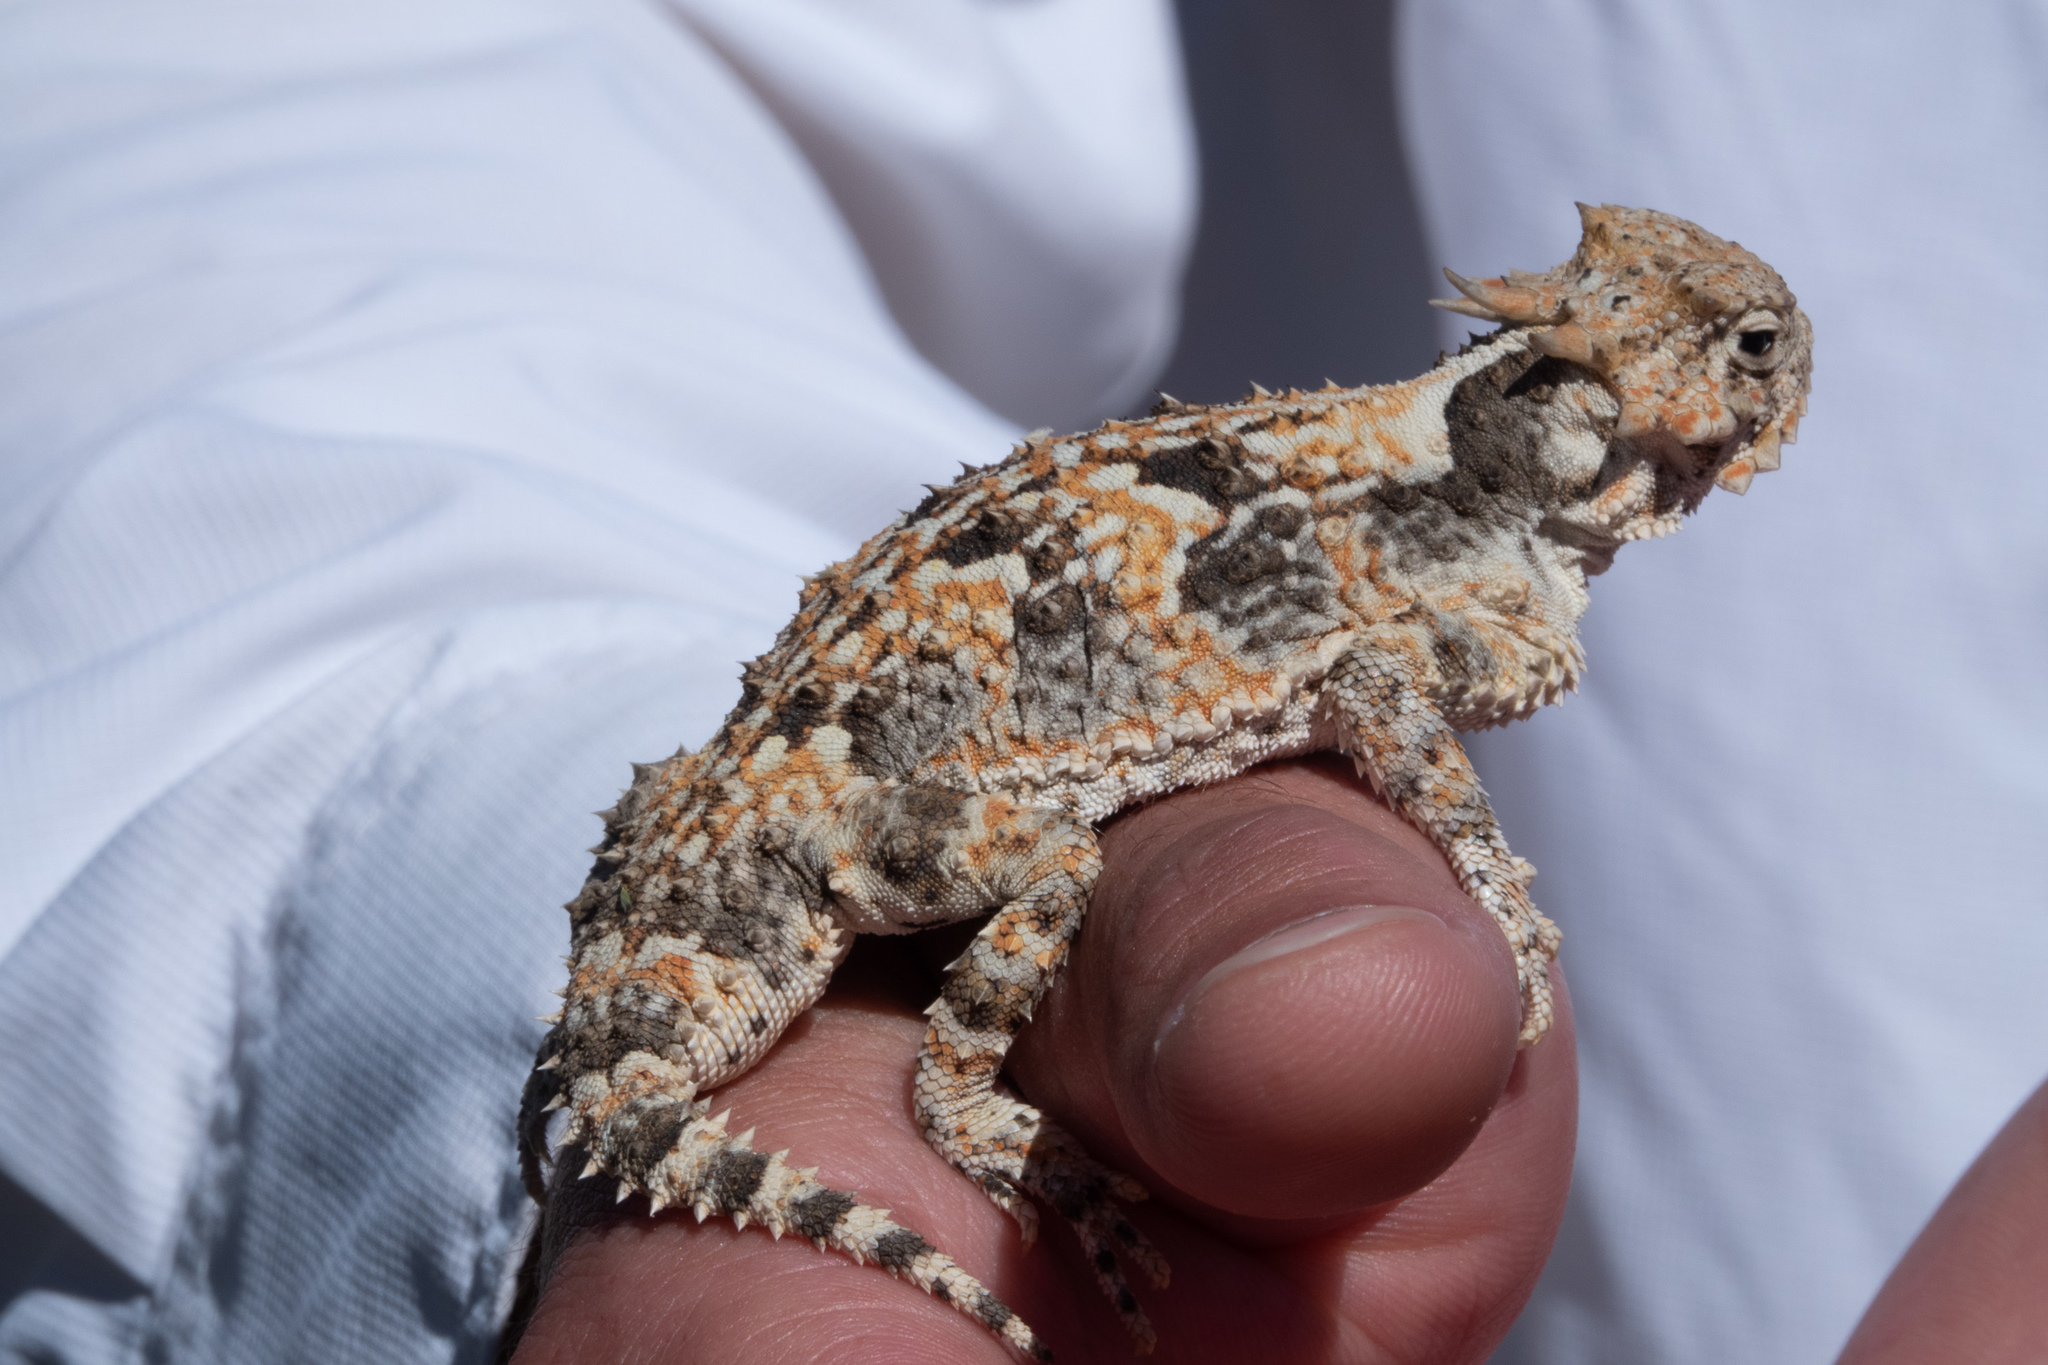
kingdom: Animalia
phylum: Chordata
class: Squamata
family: Phrynosomatidae
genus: Phrynosoma
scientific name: Phrynosoma platyrhinos
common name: Desert horned lizard
